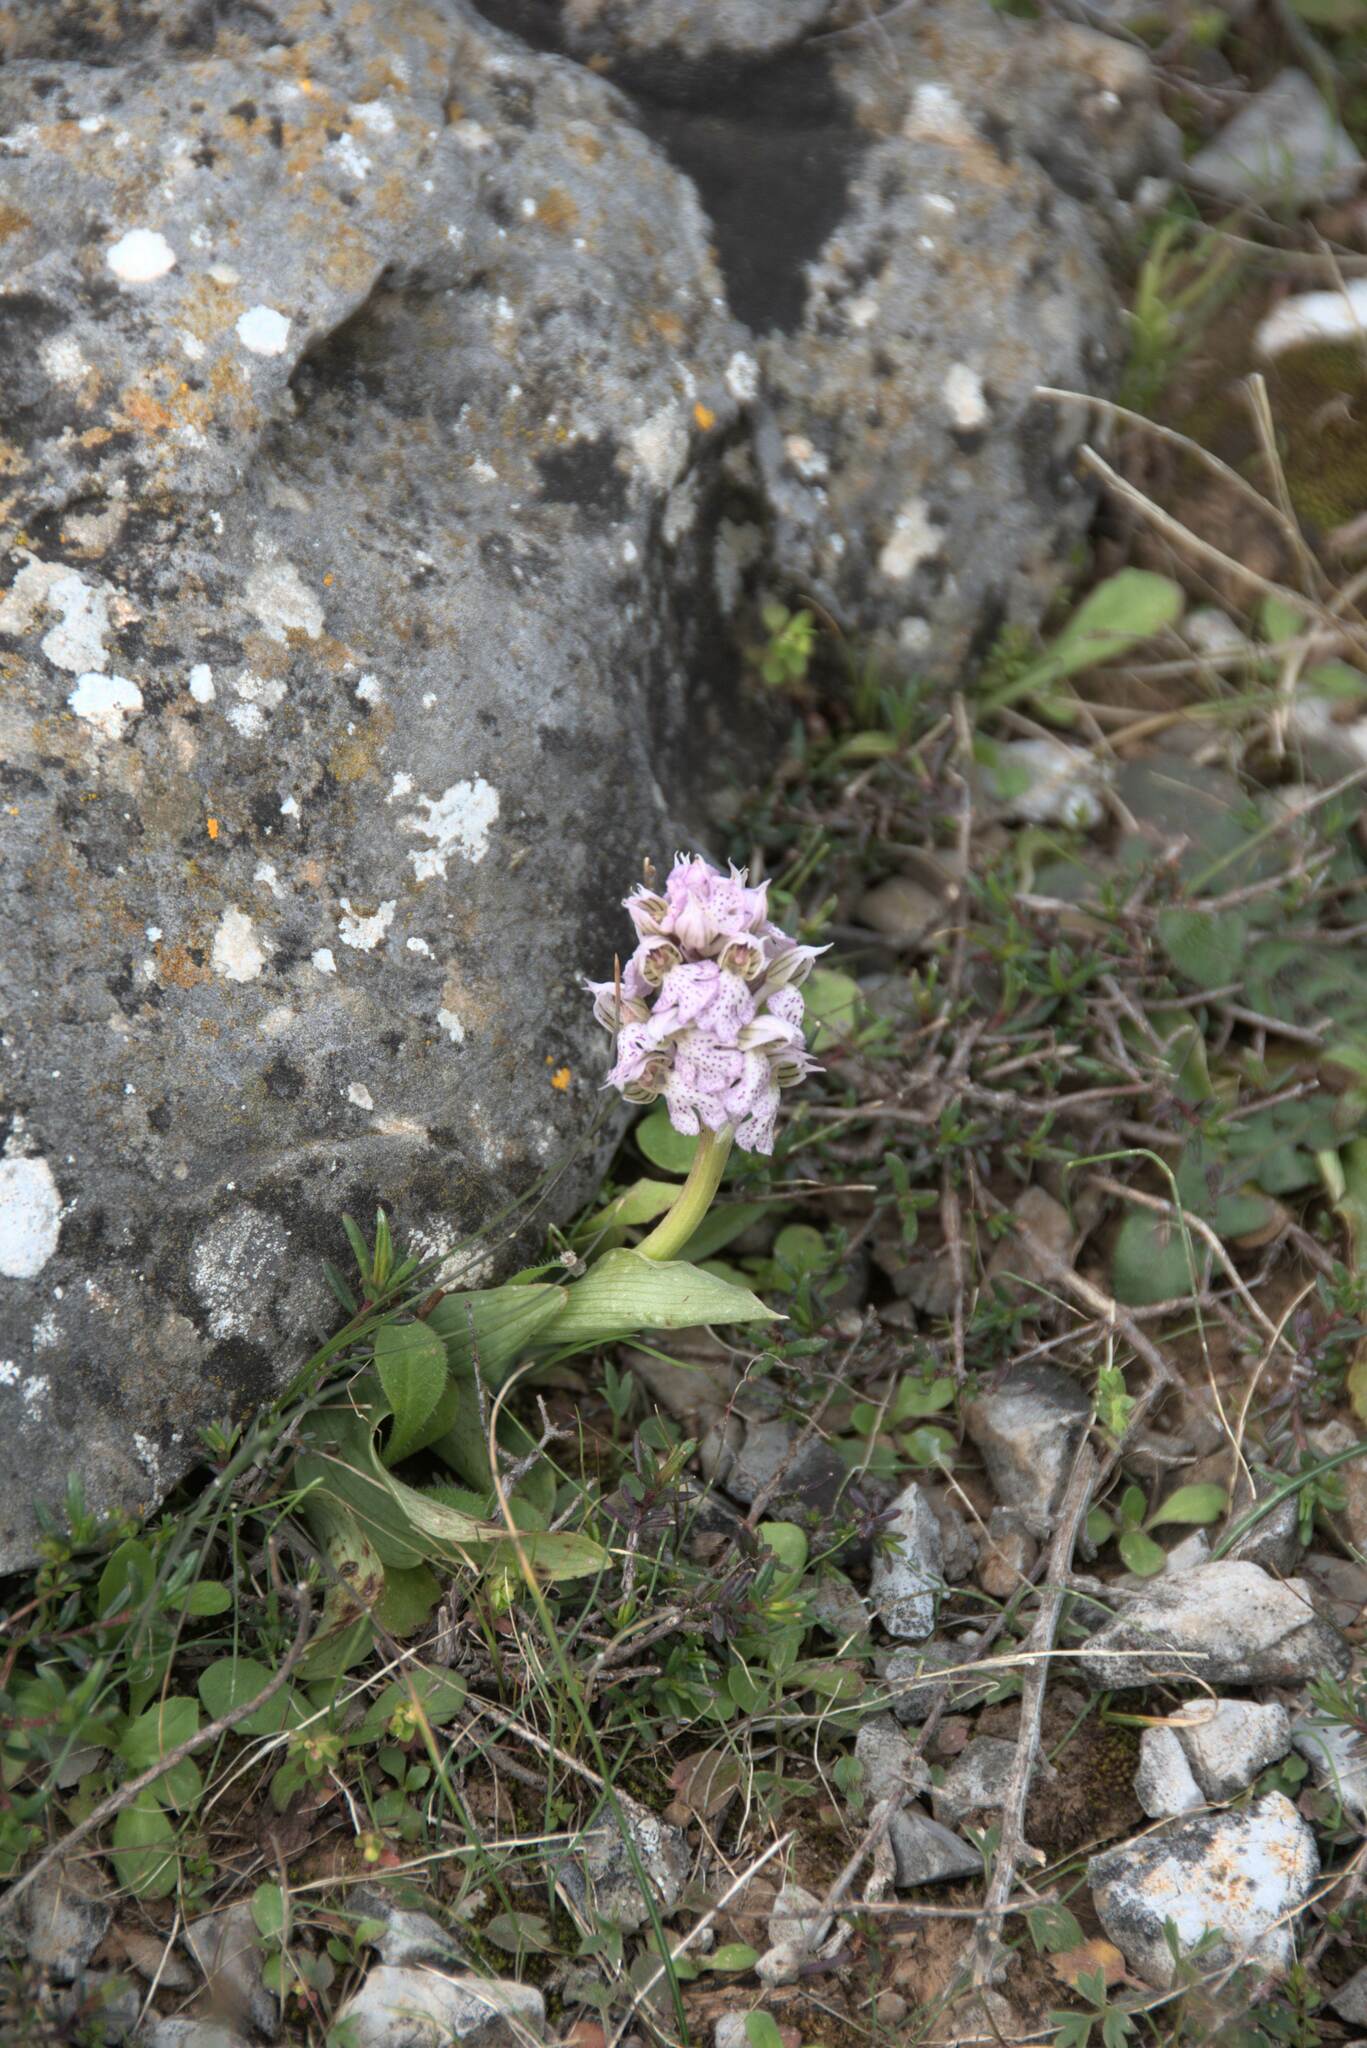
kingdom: Plantae
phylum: Tracheophyta
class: Liliopsida
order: Asparagales
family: Orchidaceae
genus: Neotinea
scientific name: Neotinea lactea
